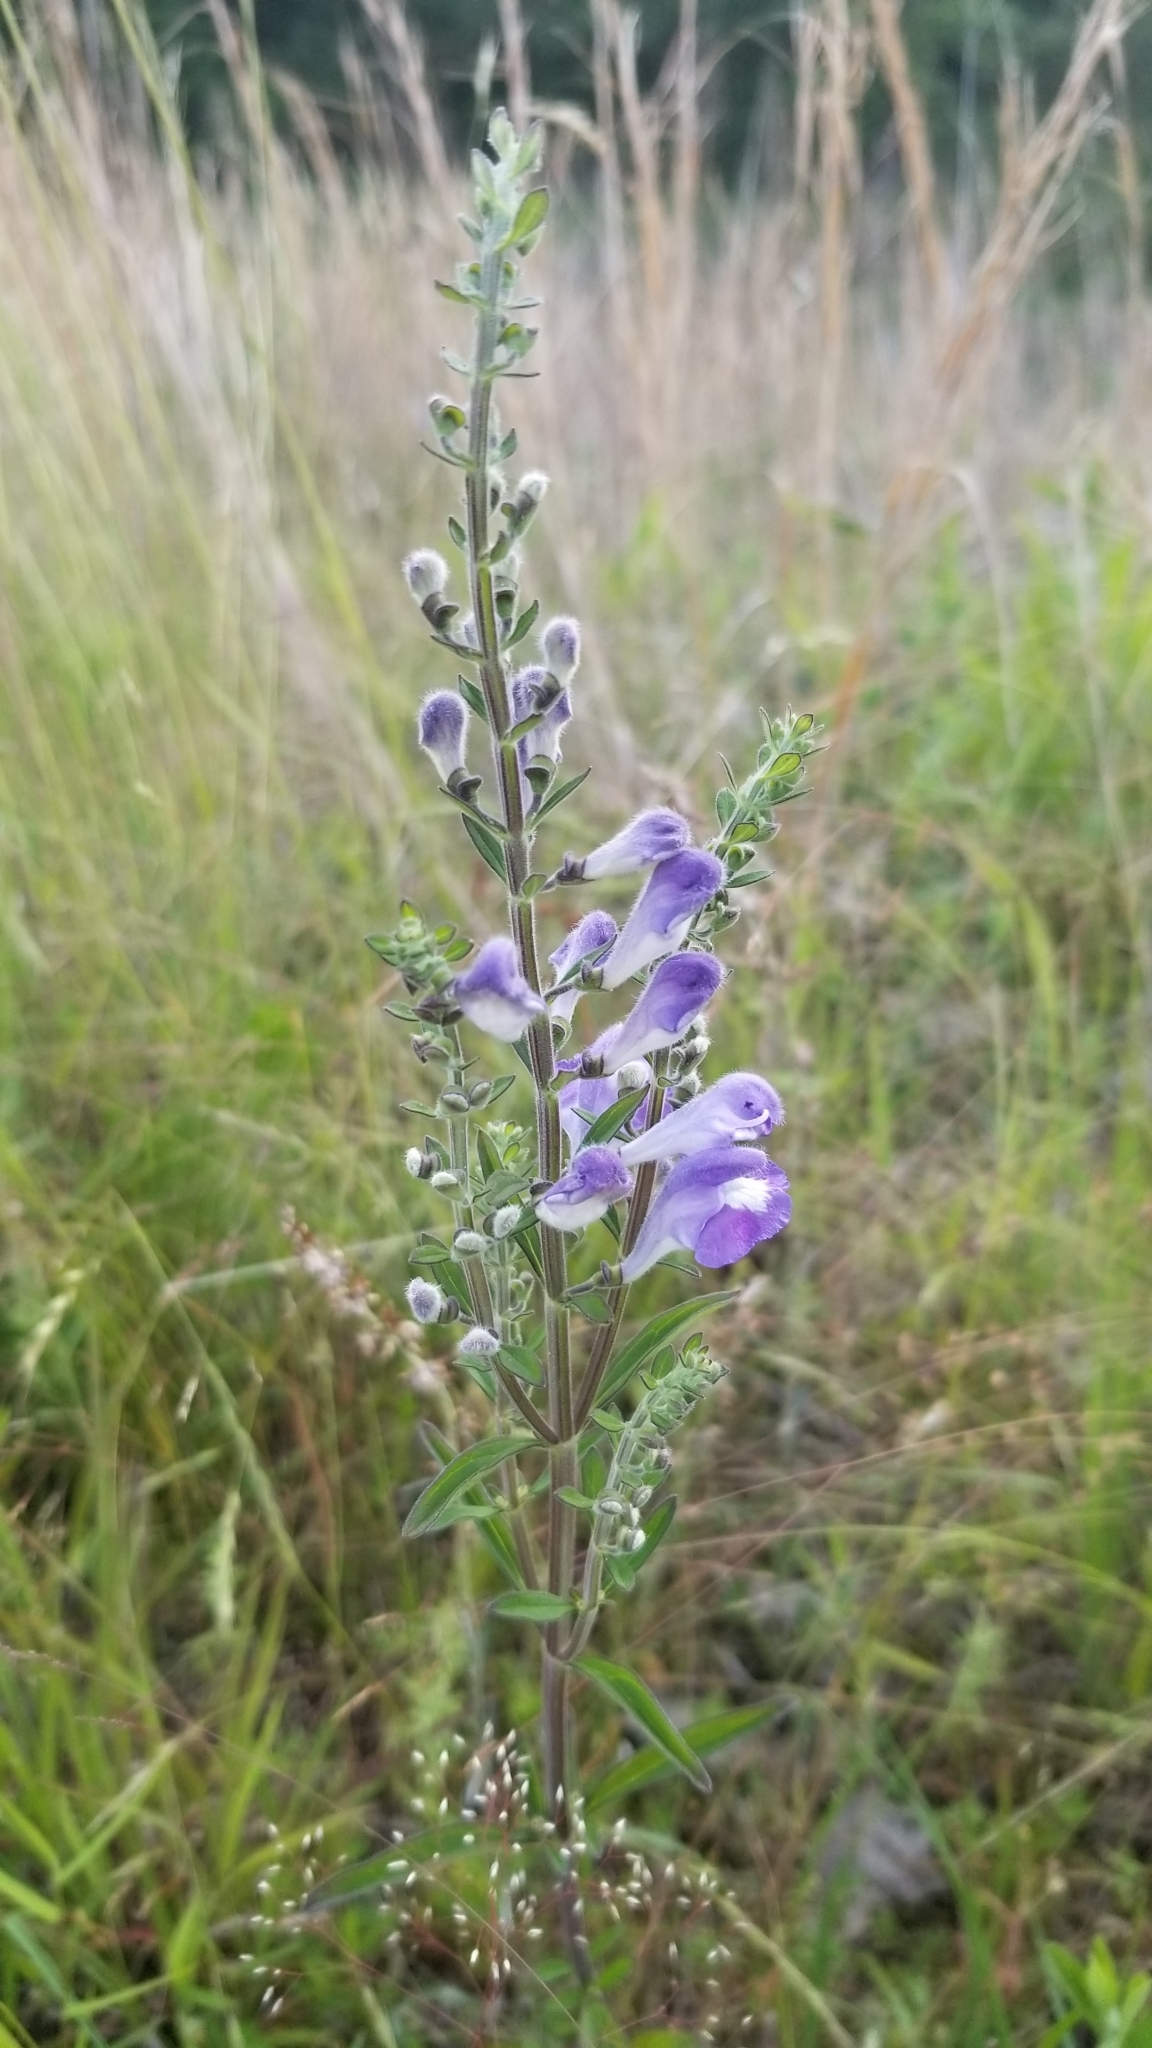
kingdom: Plantae
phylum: Tracheophyta
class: Magnoliopsida
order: Lamiales
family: Lamiaceae
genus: Scutellaria
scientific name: Scutellaria integrifolia
